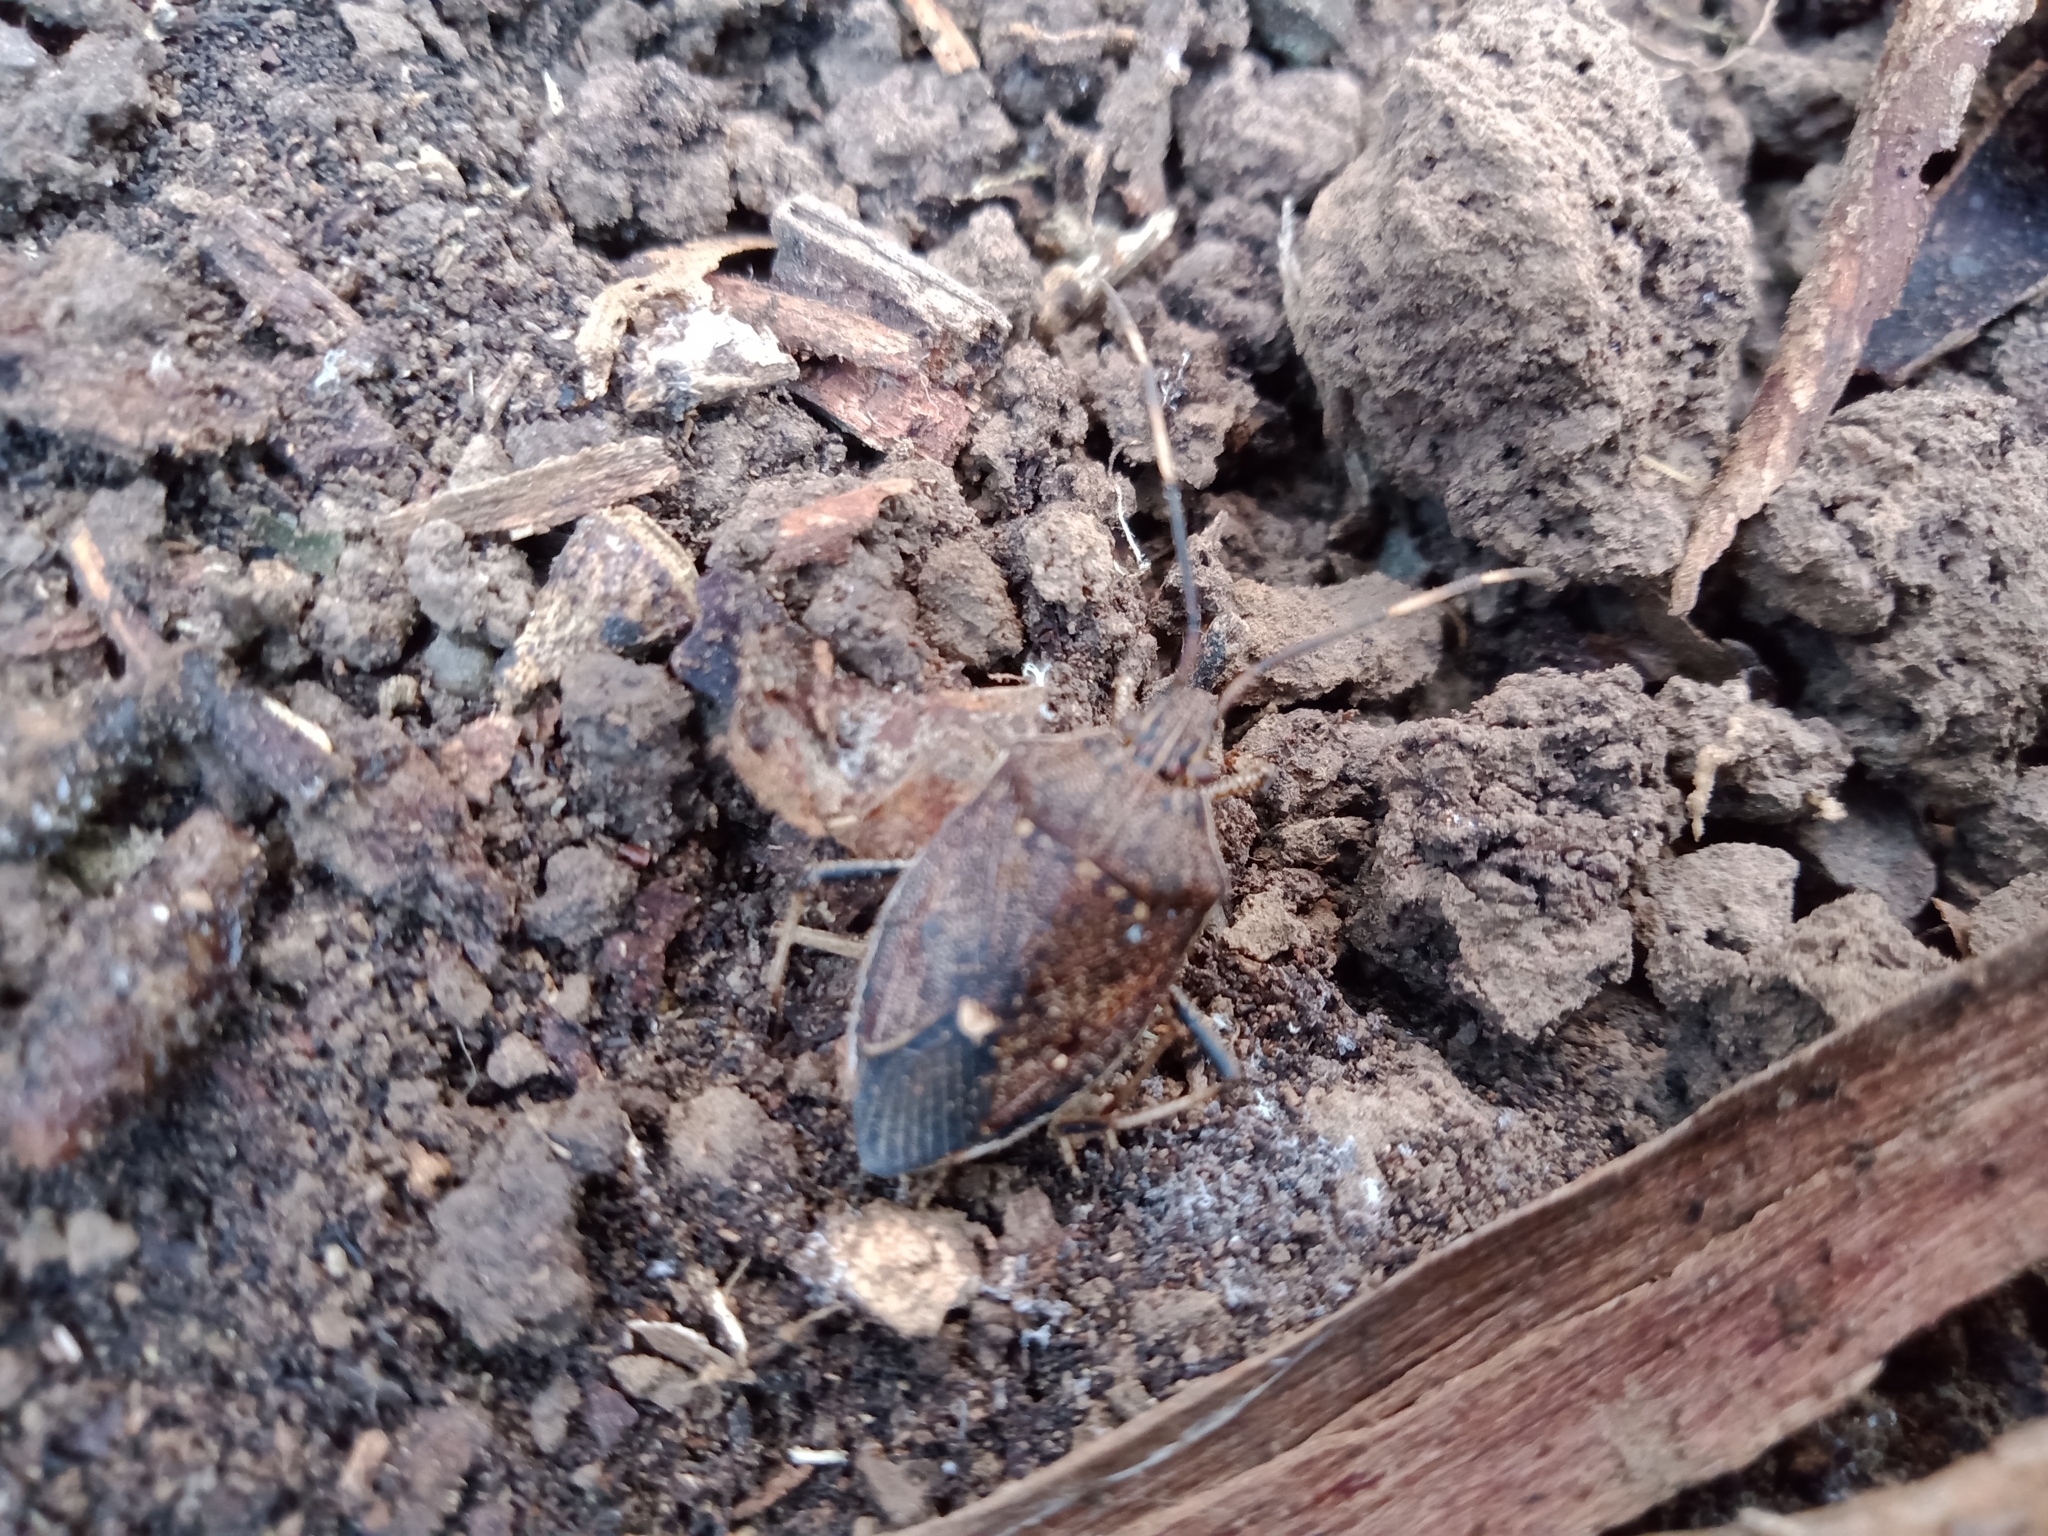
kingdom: Animalia
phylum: Arthropoda
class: Insecta
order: Hemiptera
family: Pentatomidae
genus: Poecilometis
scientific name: Poecilometis
